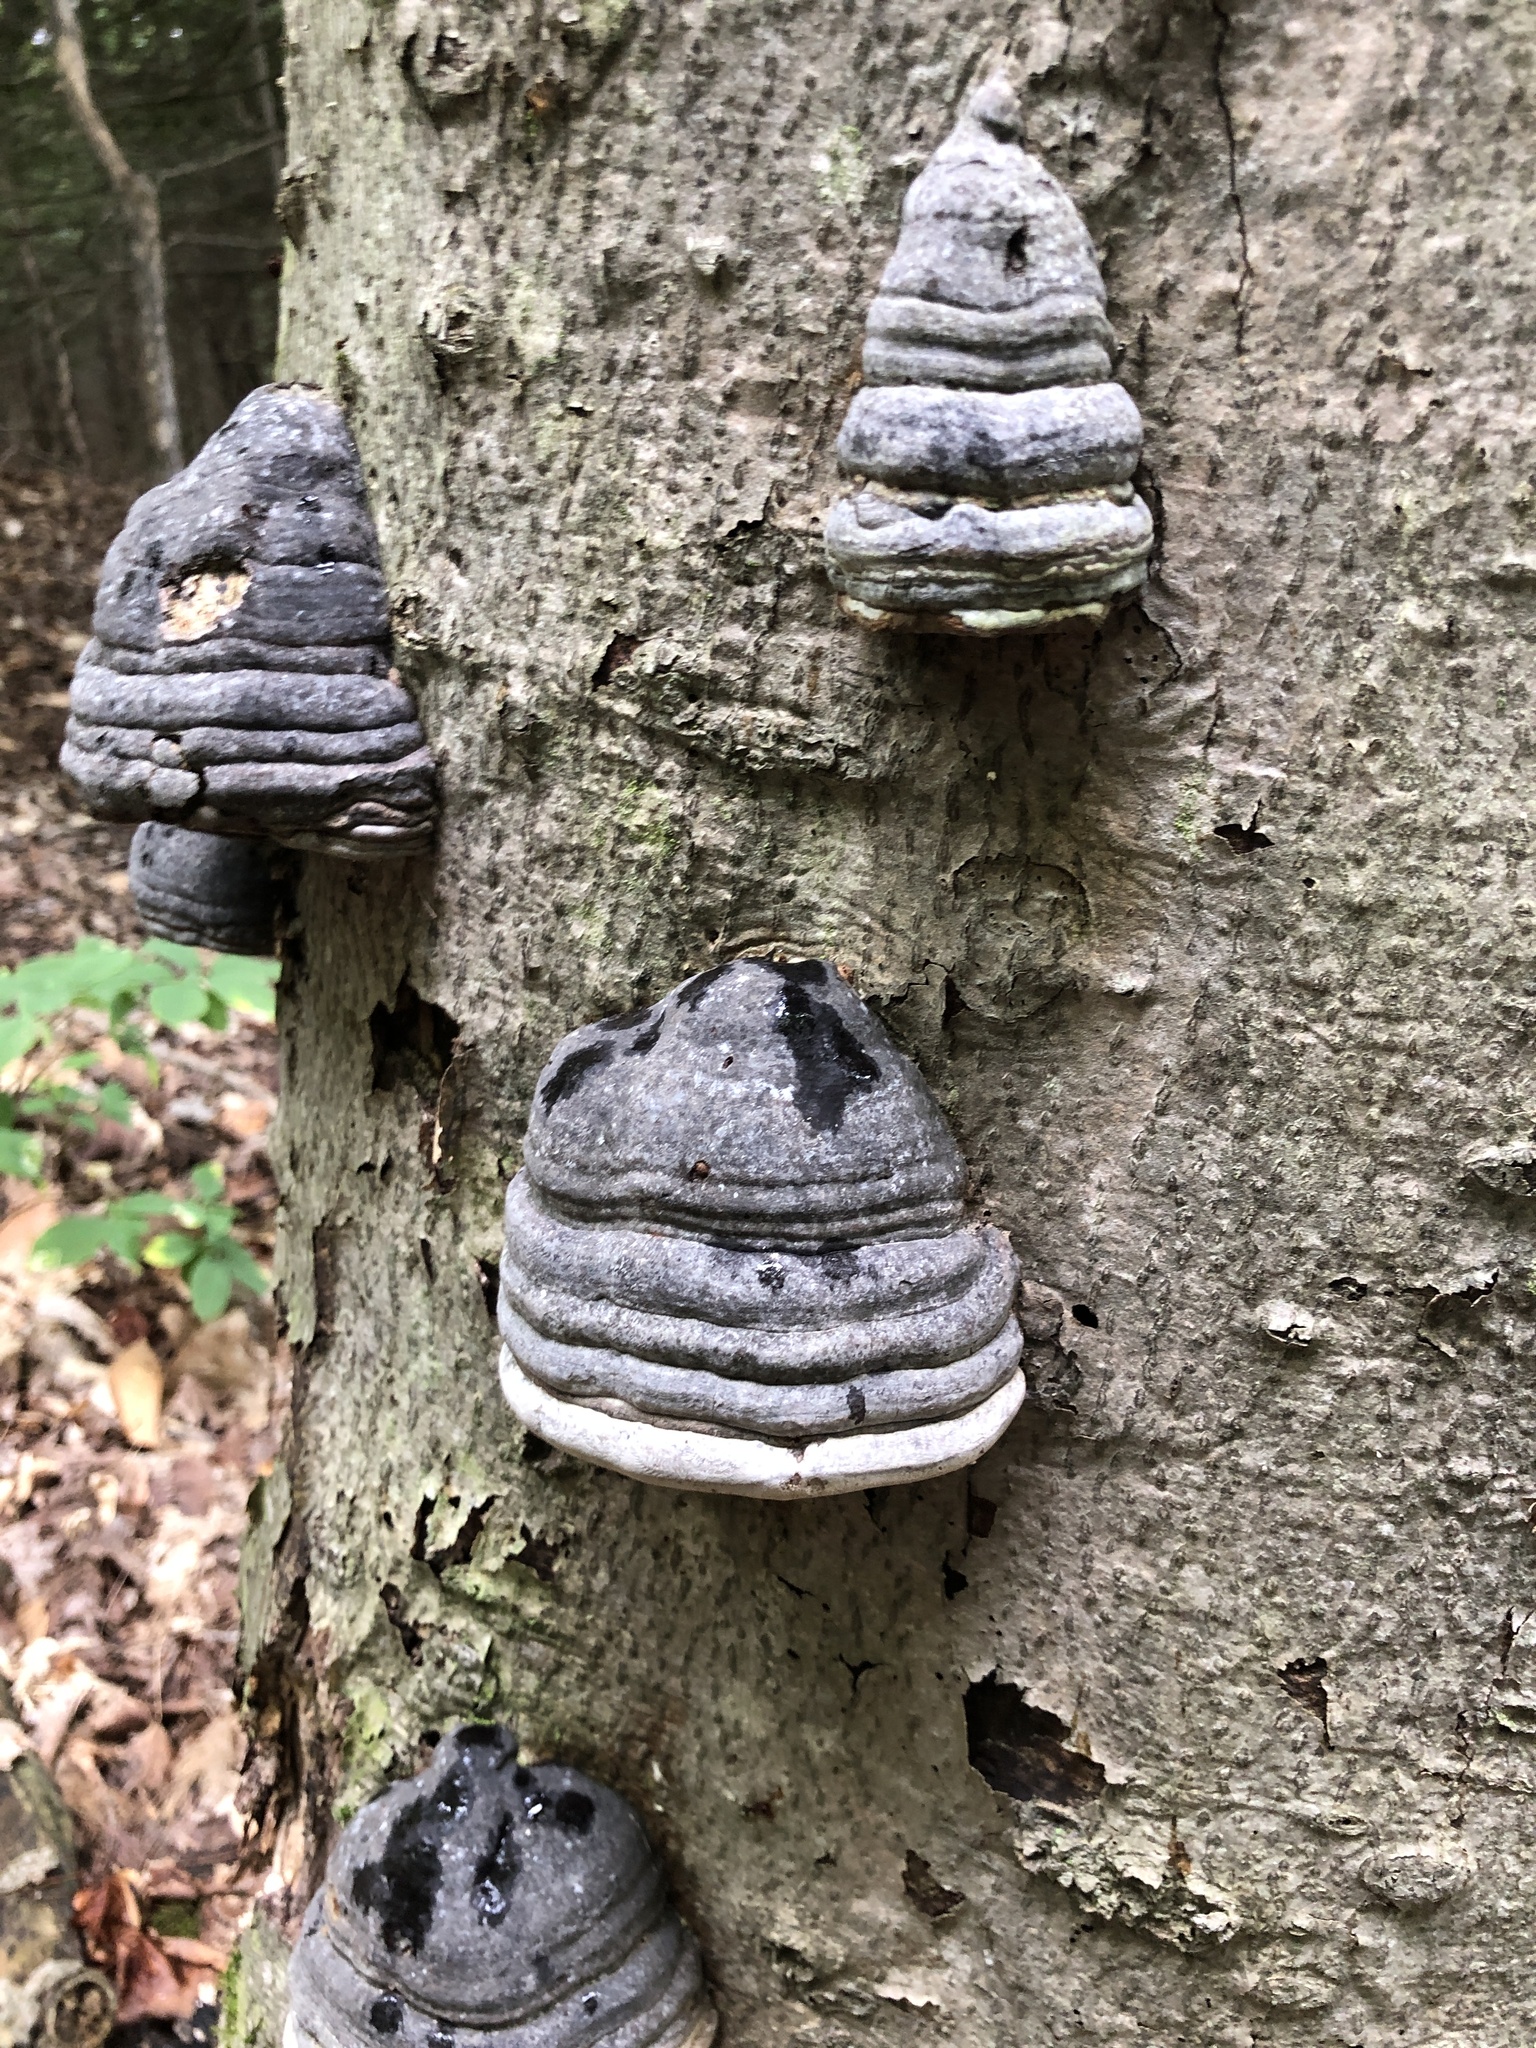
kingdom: Fungi
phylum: Basidiomycota
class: Agaricomycetes
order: Polyporales
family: Polyporaceae
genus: Fomes
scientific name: Fomes fomentarius
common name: Hoof fungus
